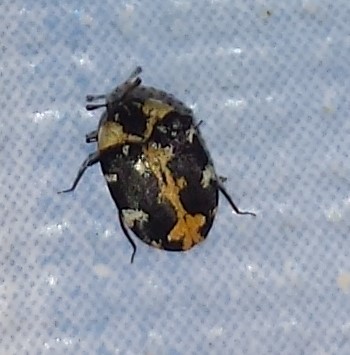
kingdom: Animalia
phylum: Arthropoda
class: Insecta
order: Coleoptera
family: Dermestidae
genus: Anthrenus
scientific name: Anthrenus scrophulariae
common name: Buffalo carpet beetle
